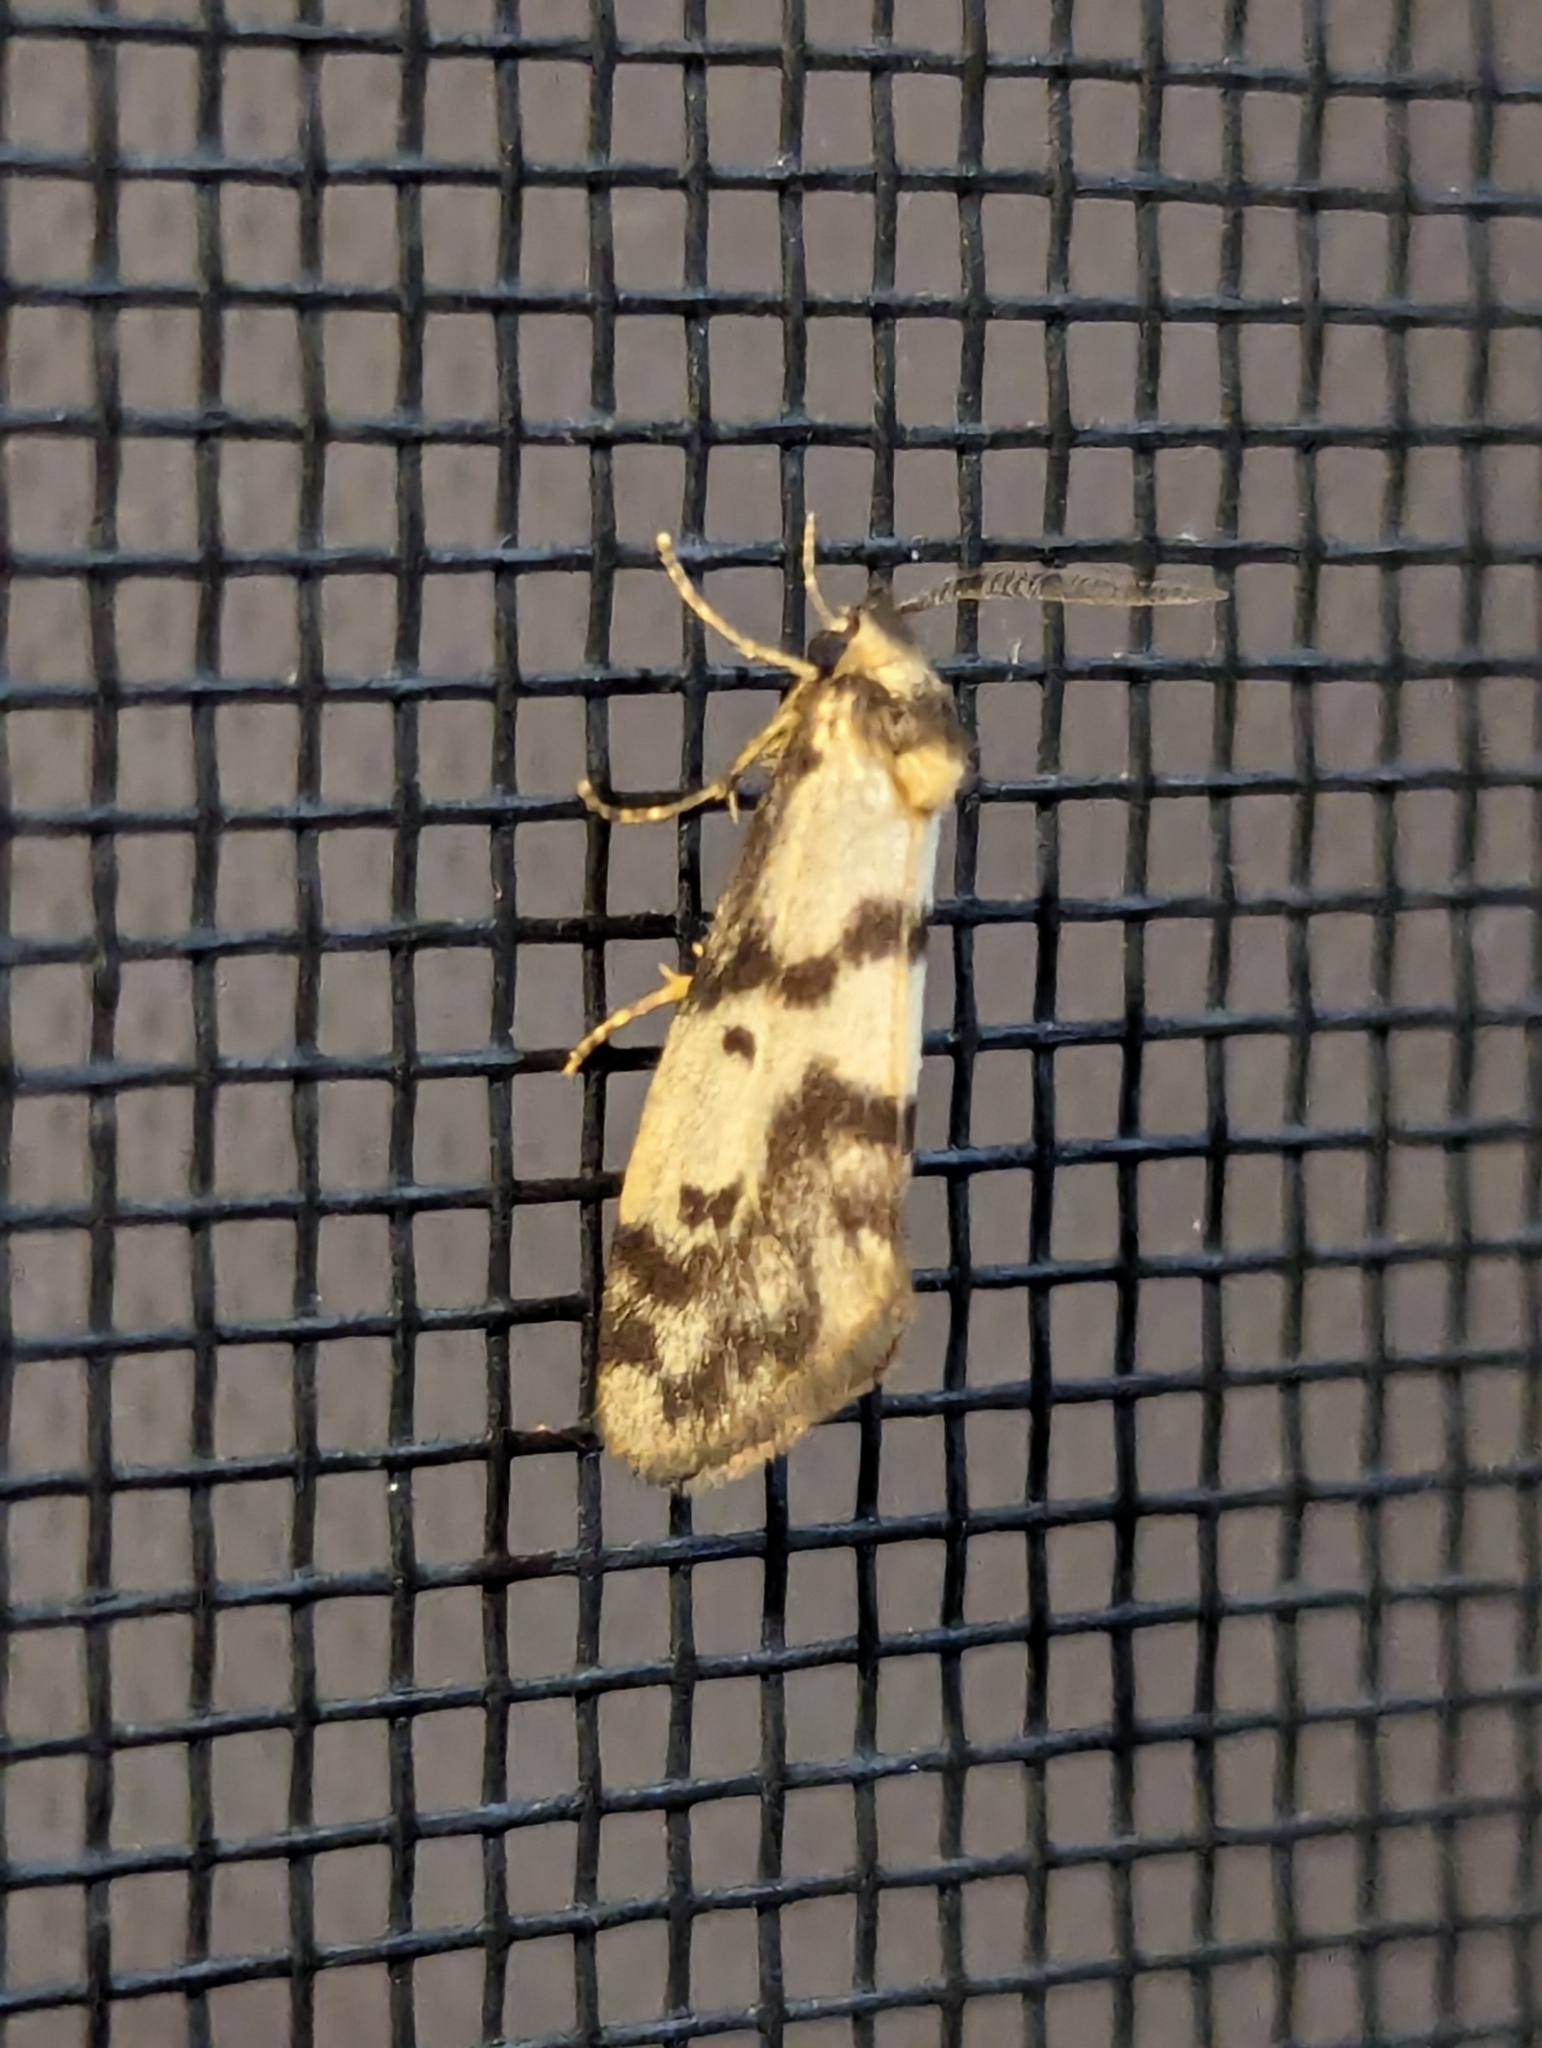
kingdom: Animalia
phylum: Arthropoda
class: Insecta
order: Lepidoptera
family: Erebidae
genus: Anestia
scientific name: Anestia
